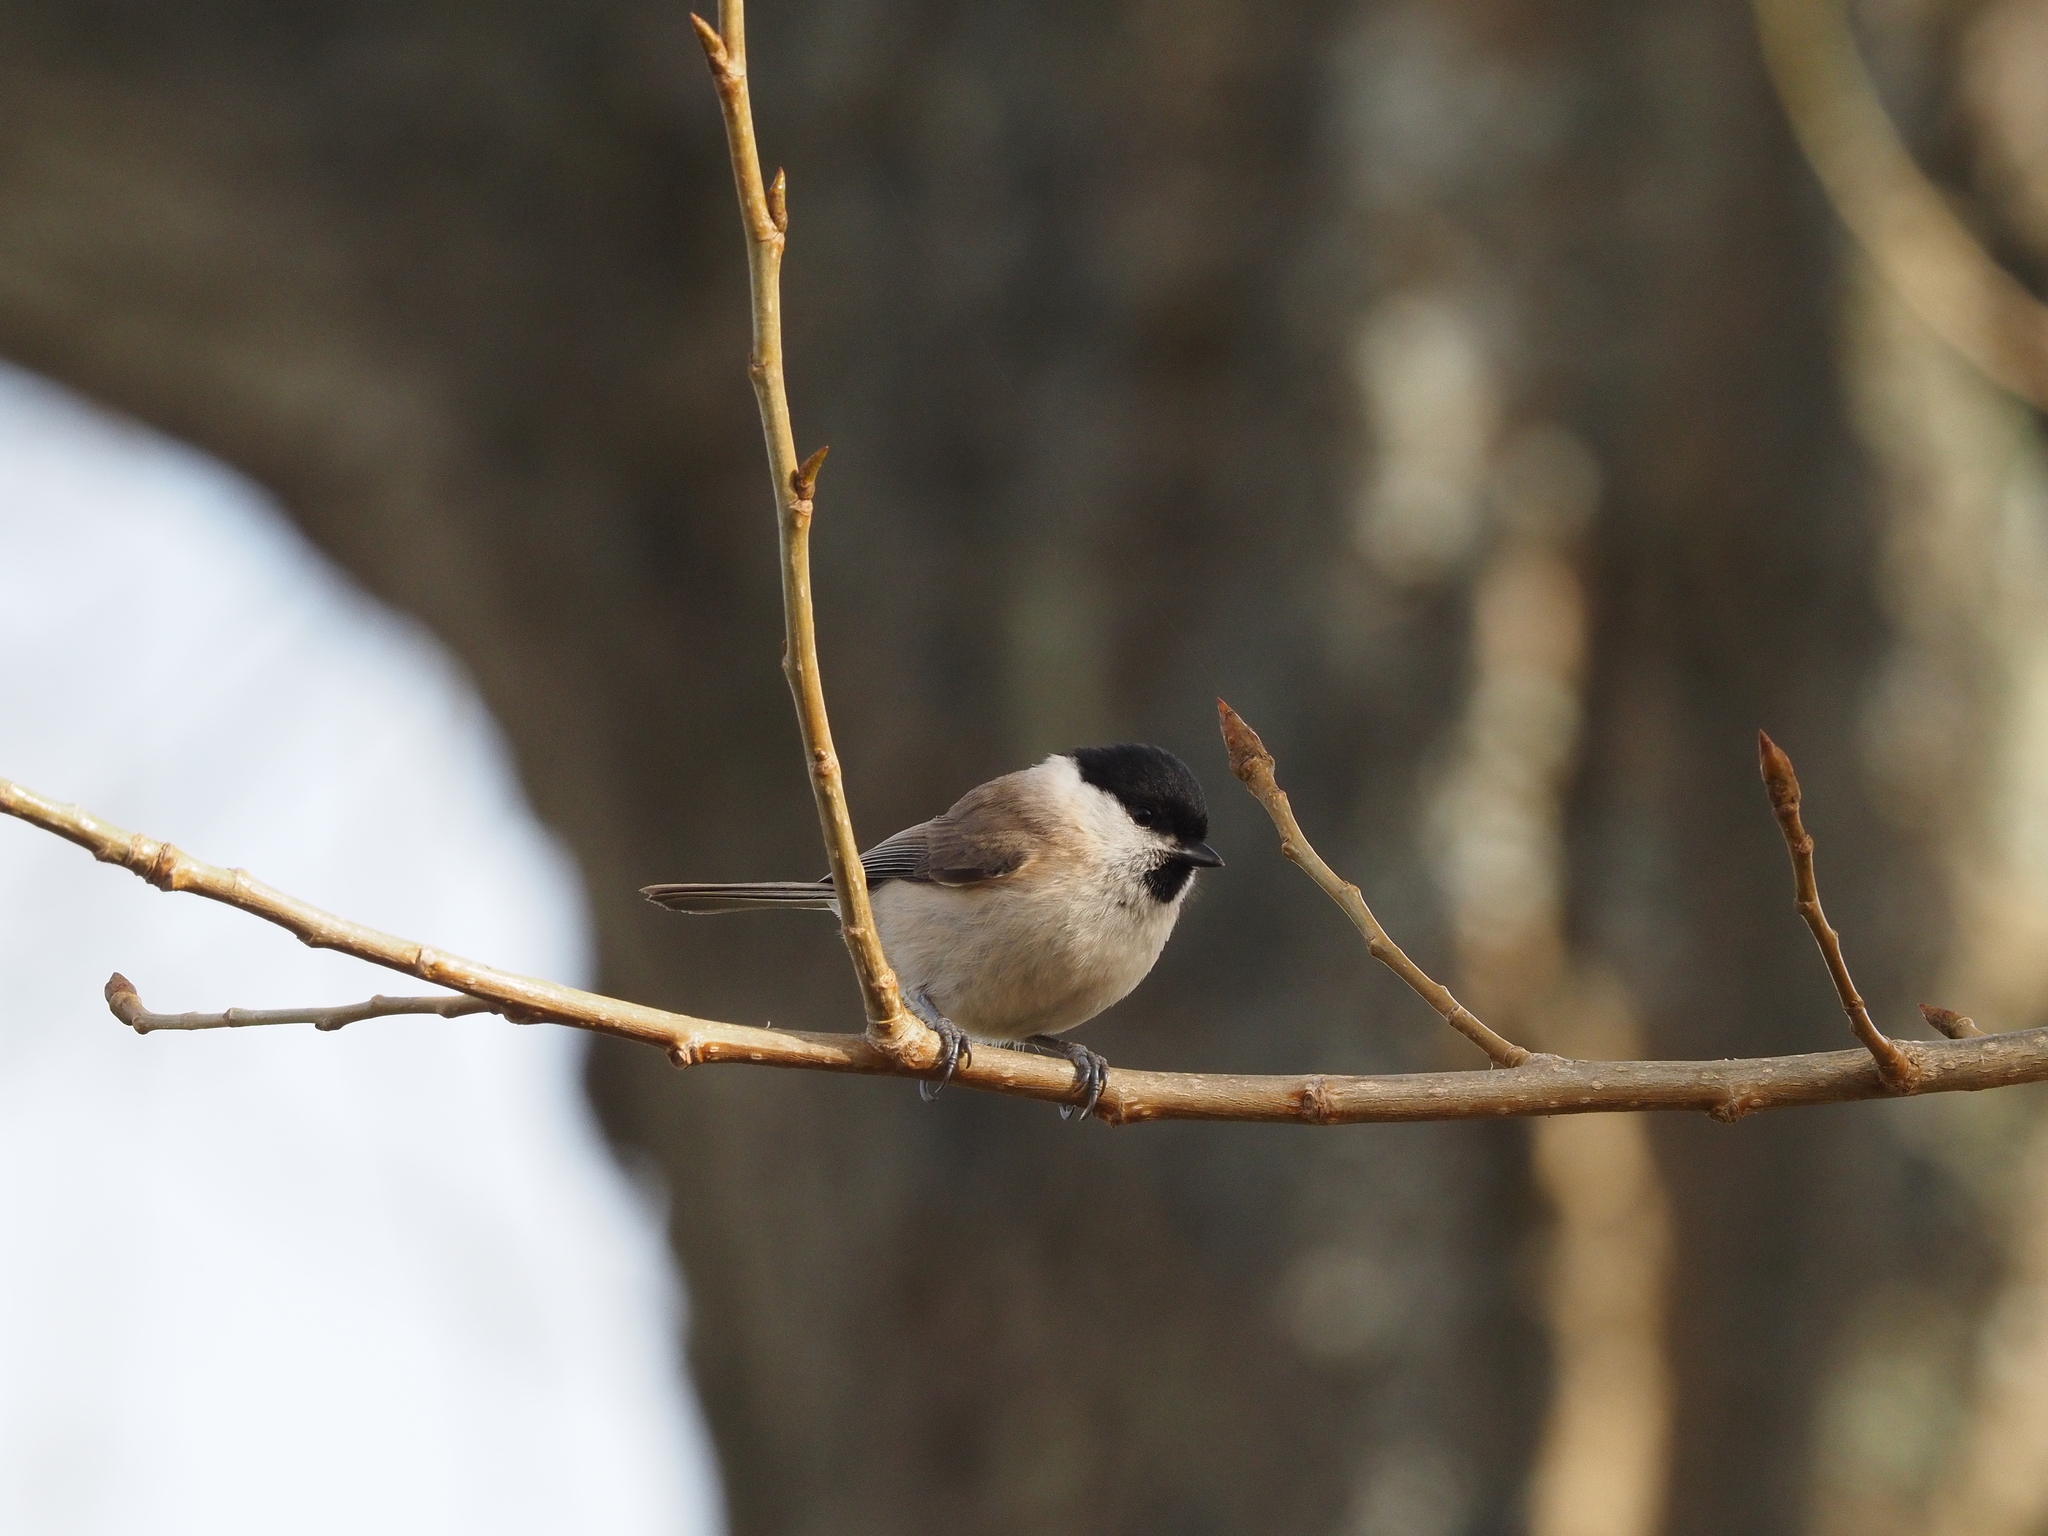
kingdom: Animalia
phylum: Chordata
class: Aves
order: Passeriformes
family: Paridae
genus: Poecile
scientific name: Poecile palustris
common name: Marsh tit
